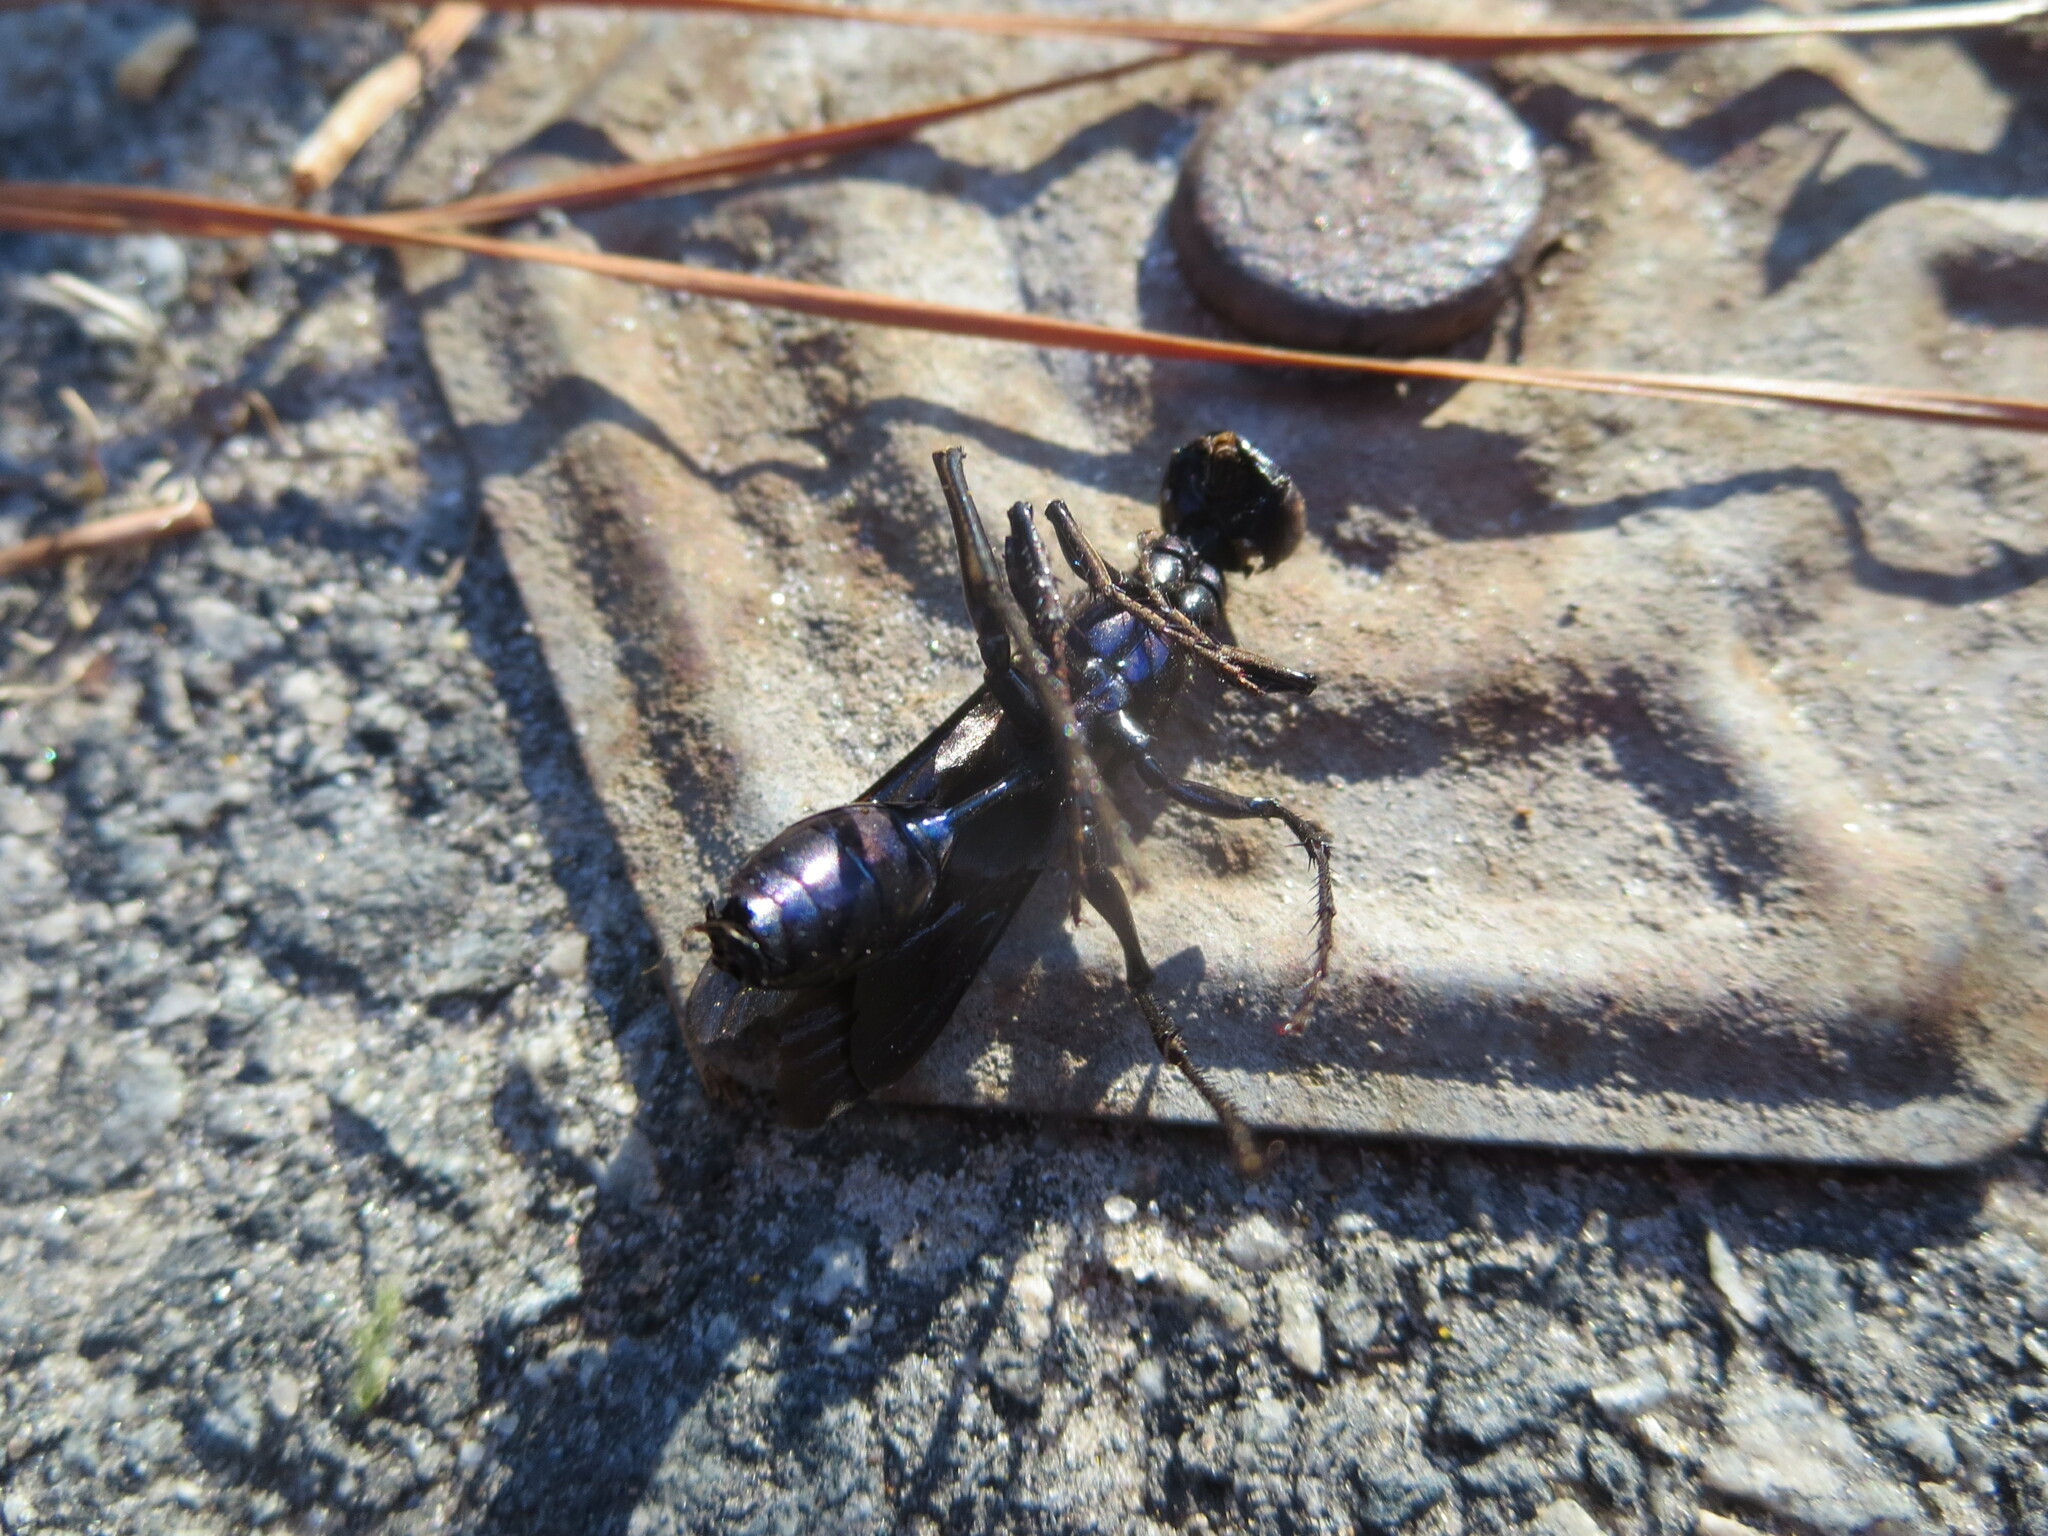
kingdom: Animalia
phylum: Arthropoda
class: Insecta
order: Hymenoptera
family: Sphecidae
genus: Chlorion
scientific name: Chlorion aerarium
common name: Steel-blue cricket hunter
